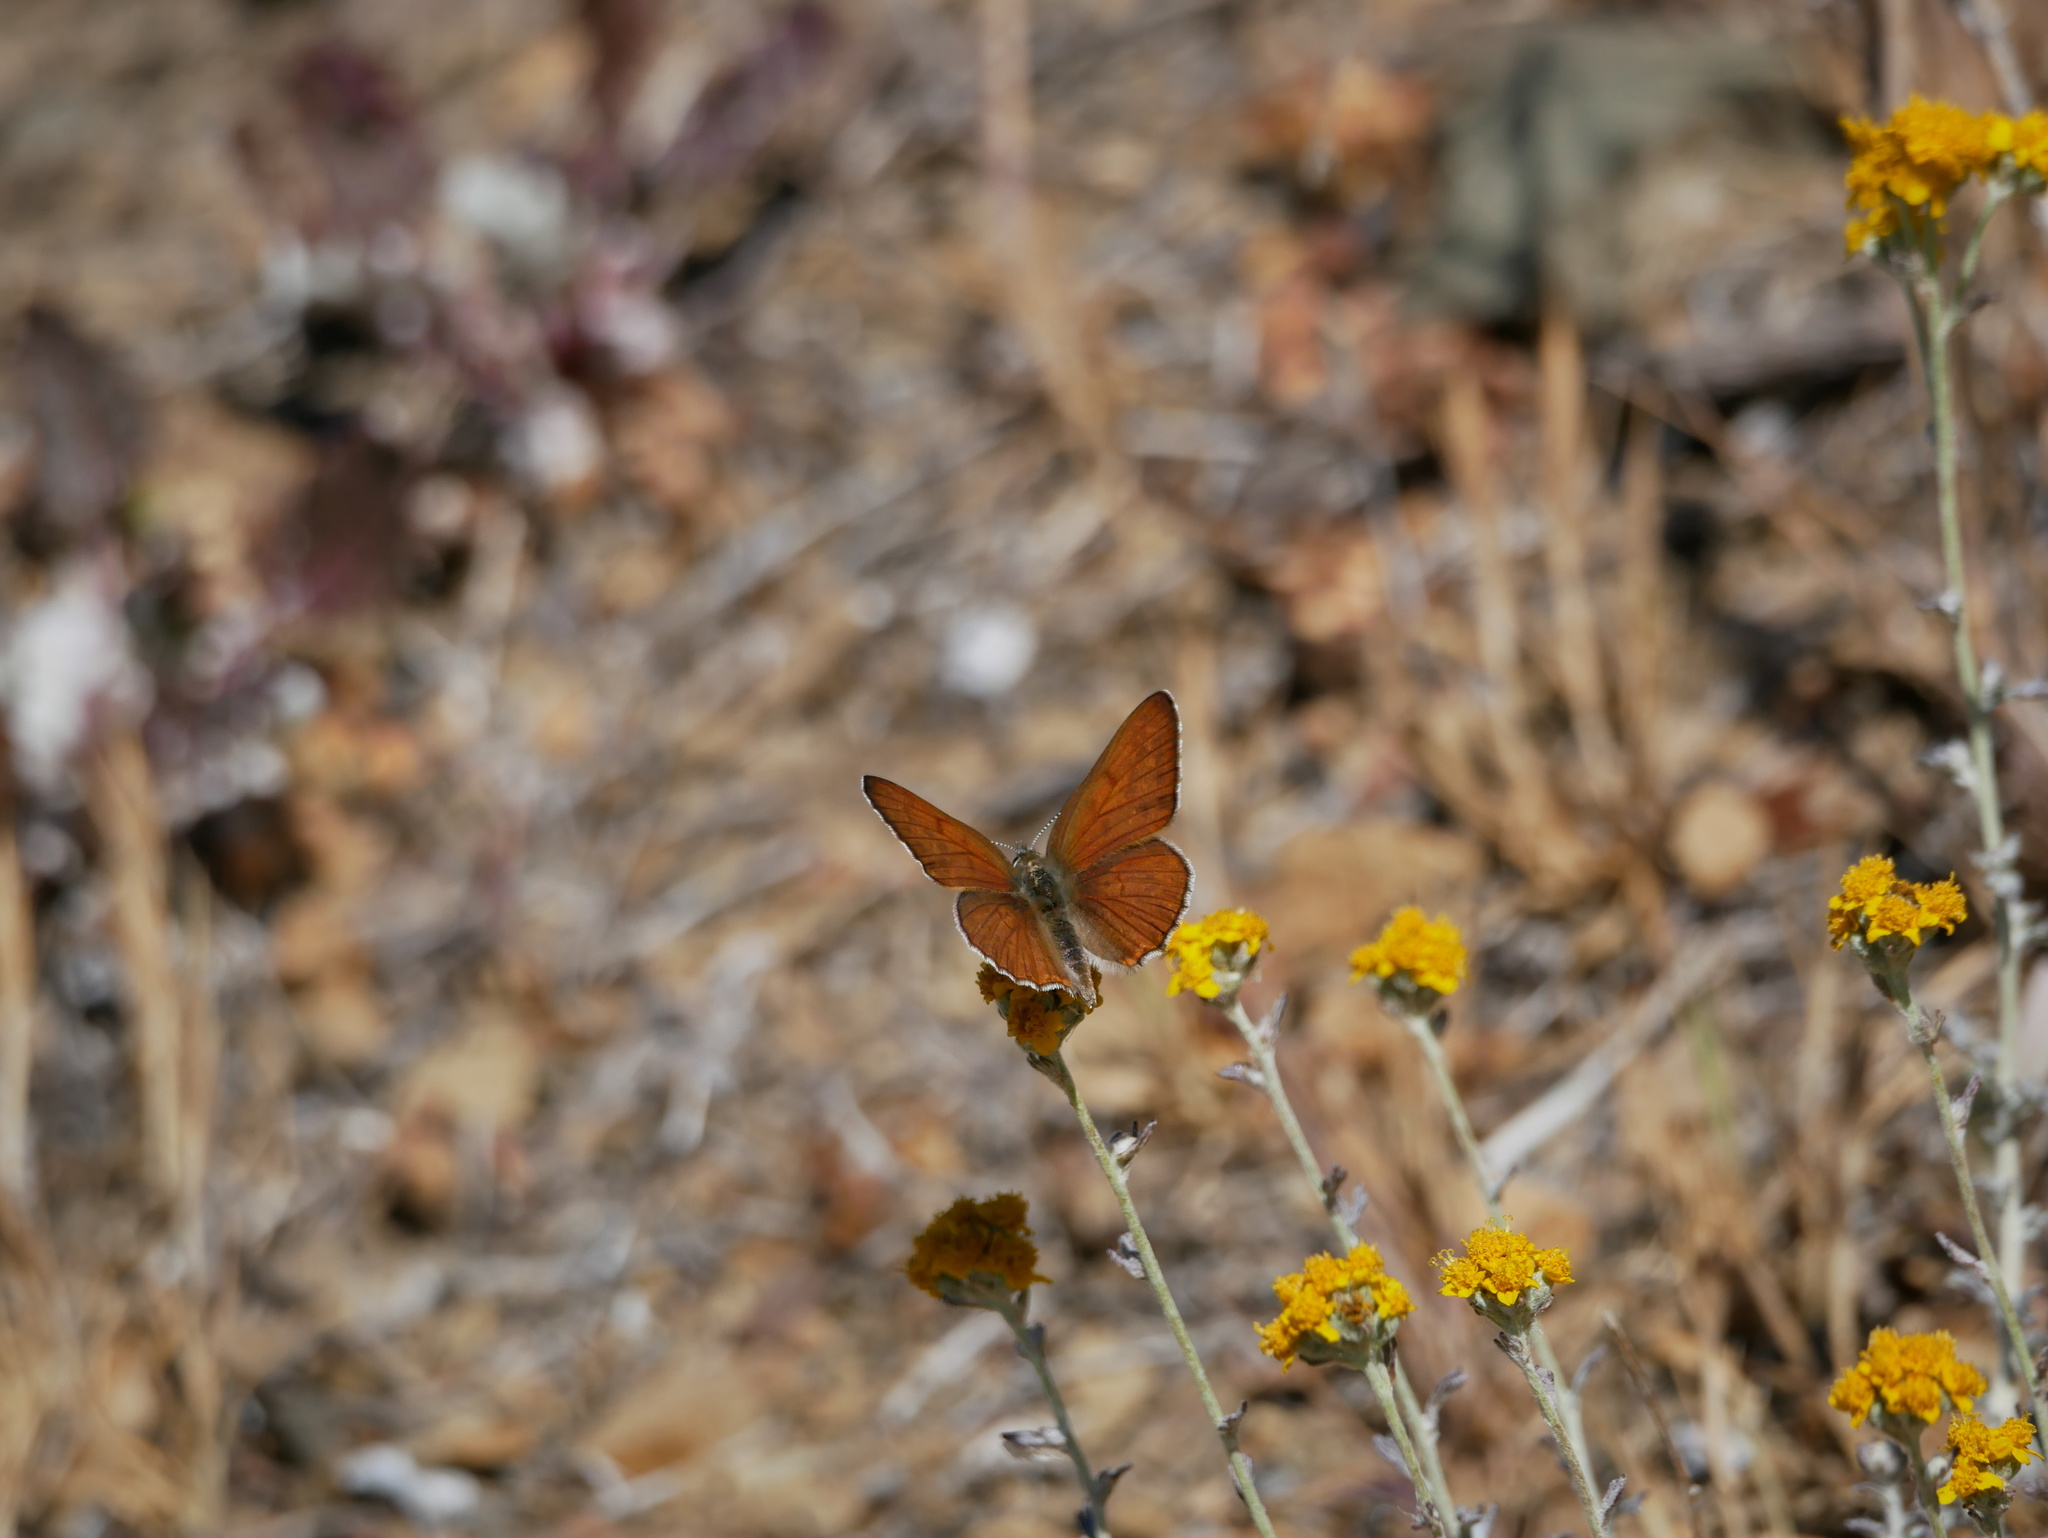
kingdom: Animalia
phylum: Arthropoda
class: Insecta
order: Lepidoptera
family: Lycaenidae
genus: Tharsalea
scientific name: Tharsalea gorgon
